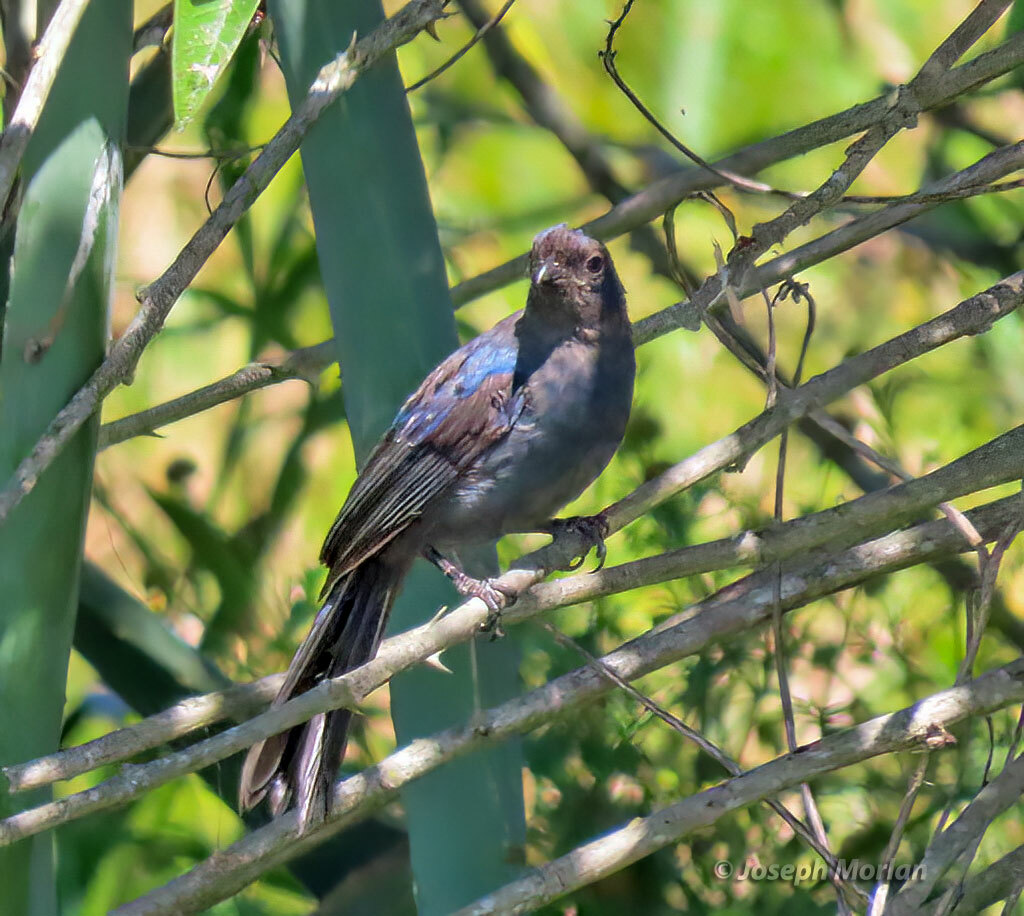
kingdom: Animalia
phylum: Chordata
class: Aves
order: Passeriformes
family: Thraupidae
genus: Stephanophorus
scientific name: Stephanophorus diadematus
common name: Diademed tanager
